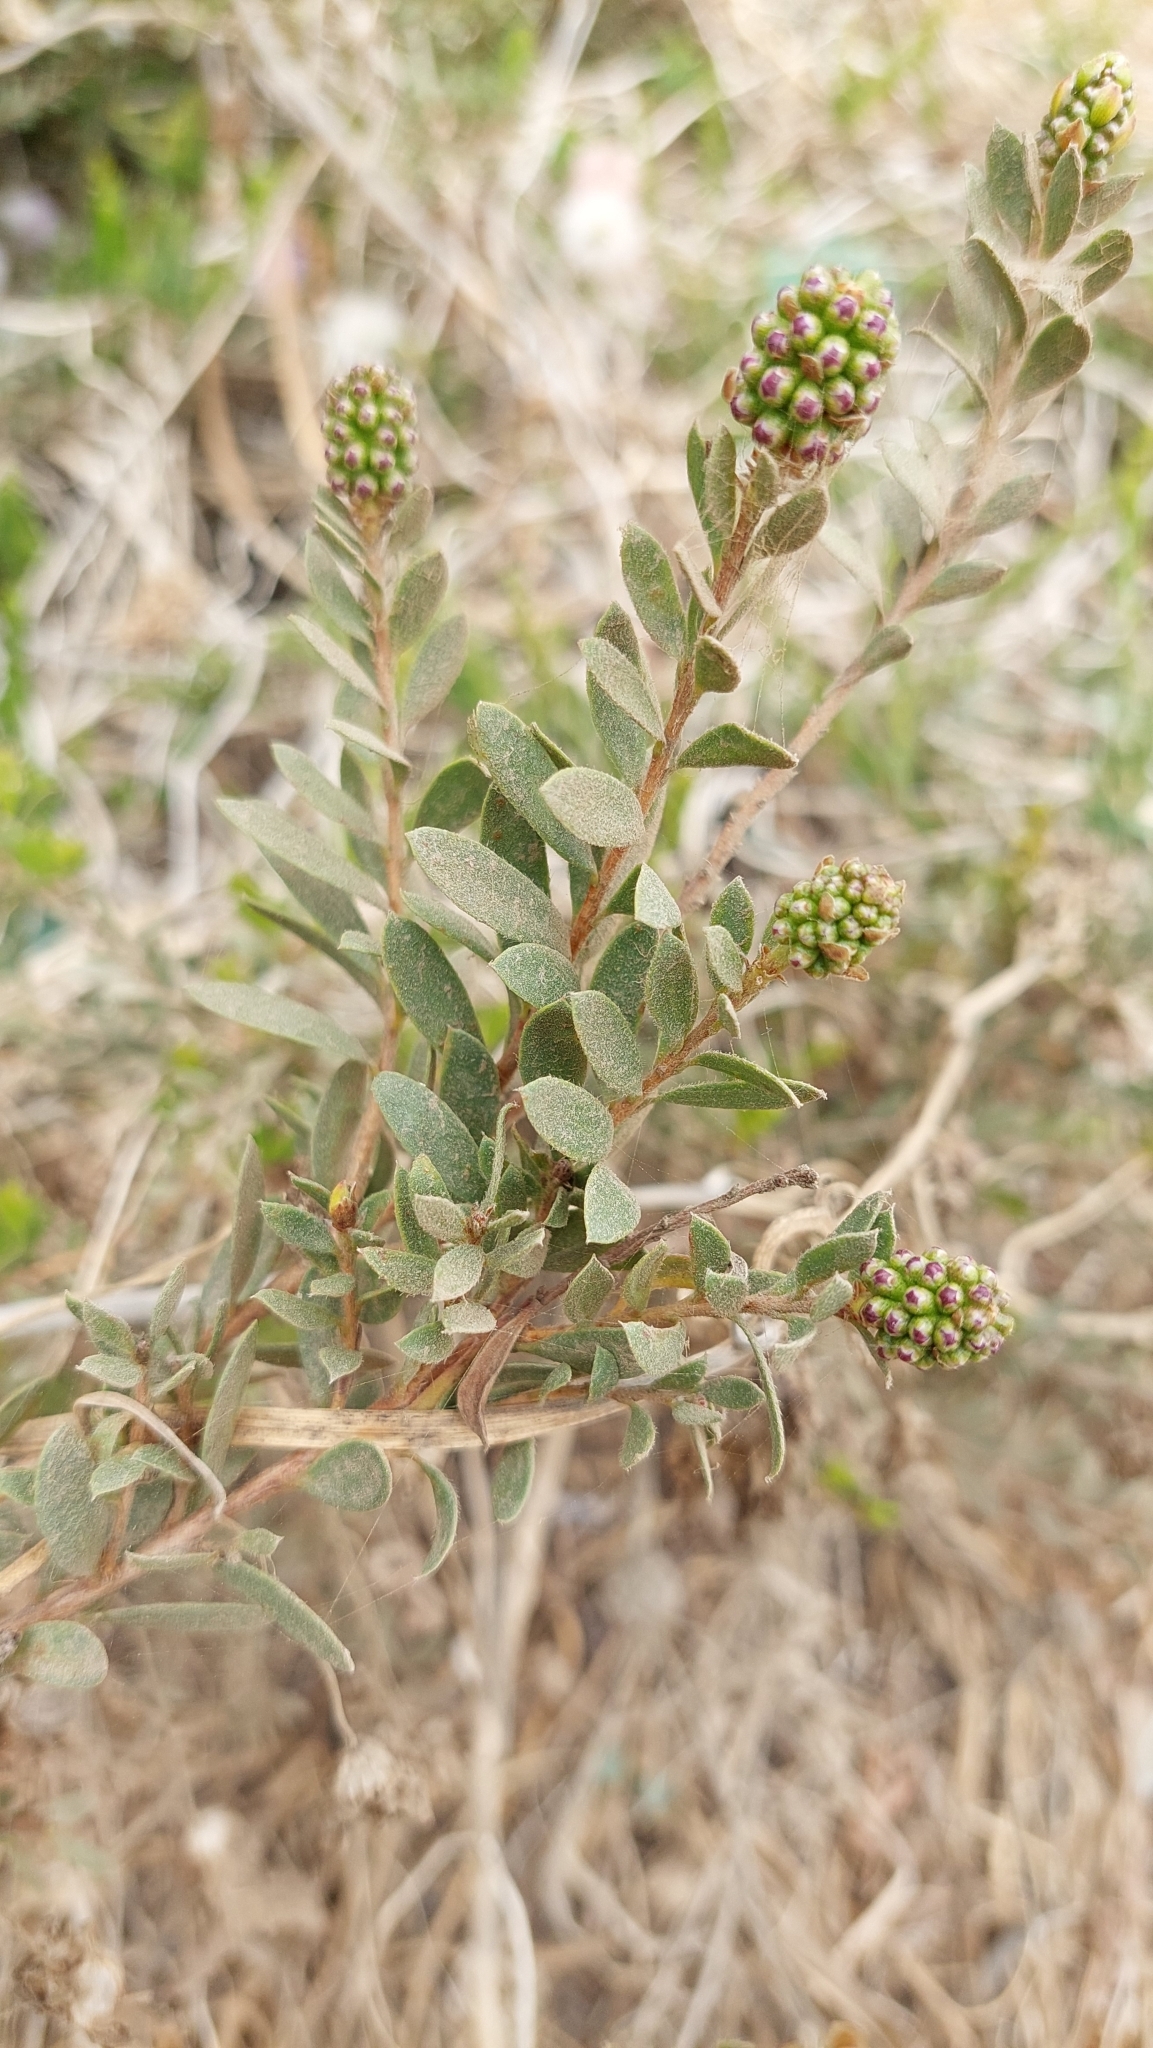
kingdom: Plantae
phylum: Tracheophyta
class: Magnoliopsida
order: Myrtales
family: Myrtaceae
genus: Melaleuca
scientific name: Melaleuca nesophila
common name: Mauve honey myrtle
